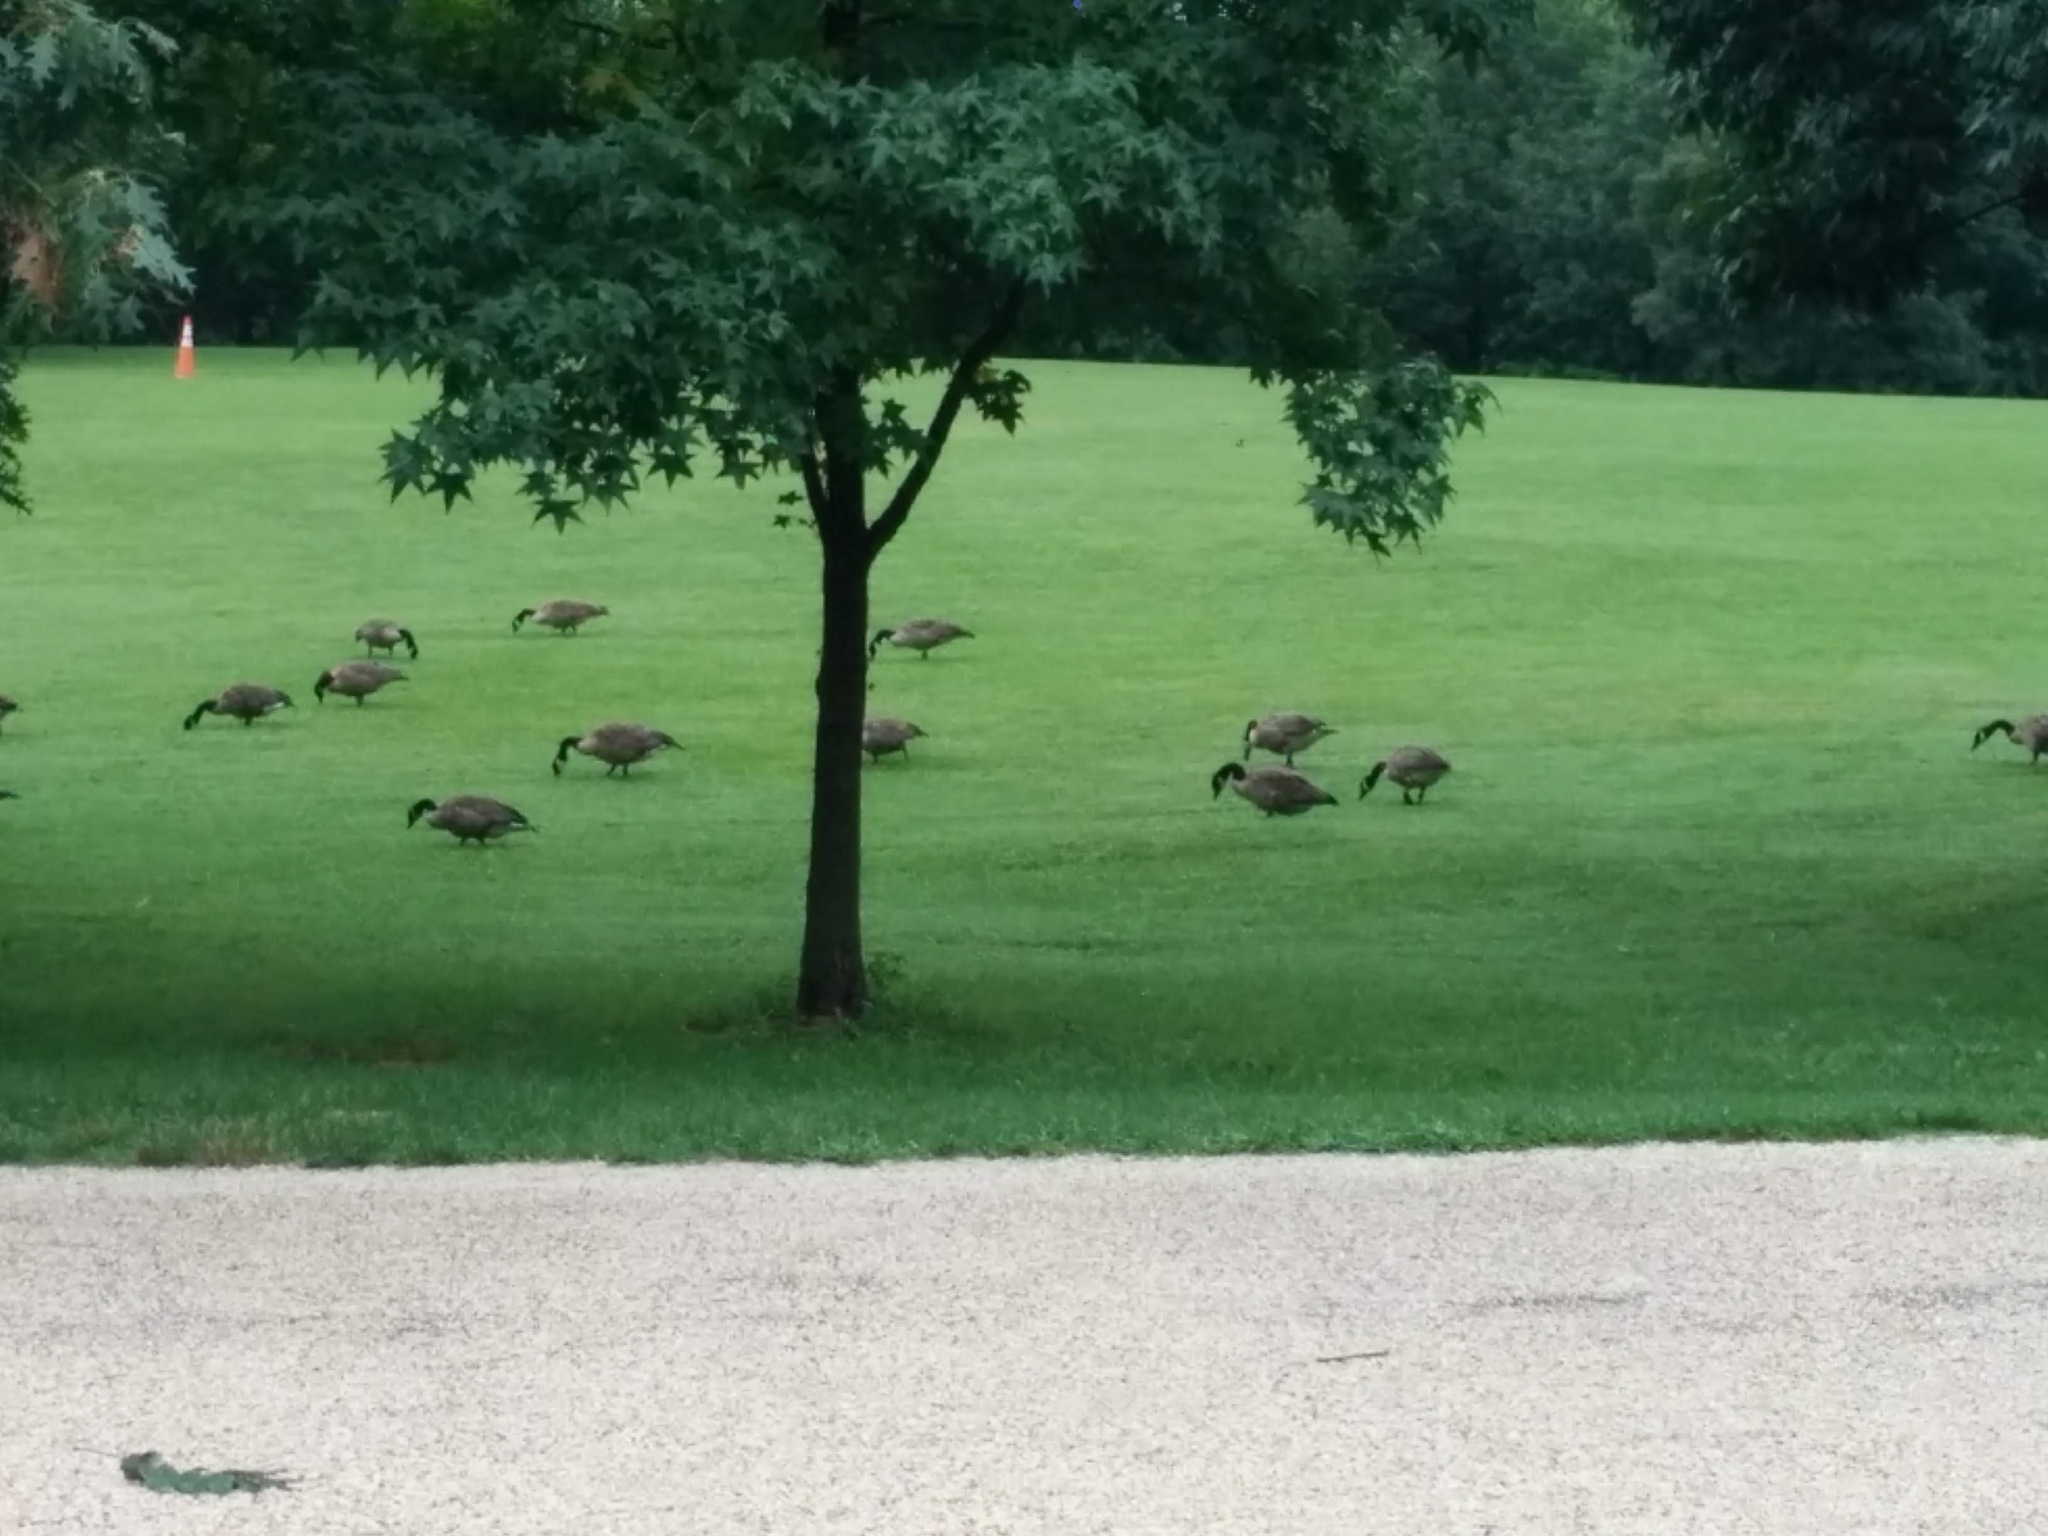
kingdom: Animalia
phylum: Chordata
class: Aves
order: Anseriformes
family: Anatidae
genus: Branta
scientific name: Branta canadensis
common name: Canada goose
